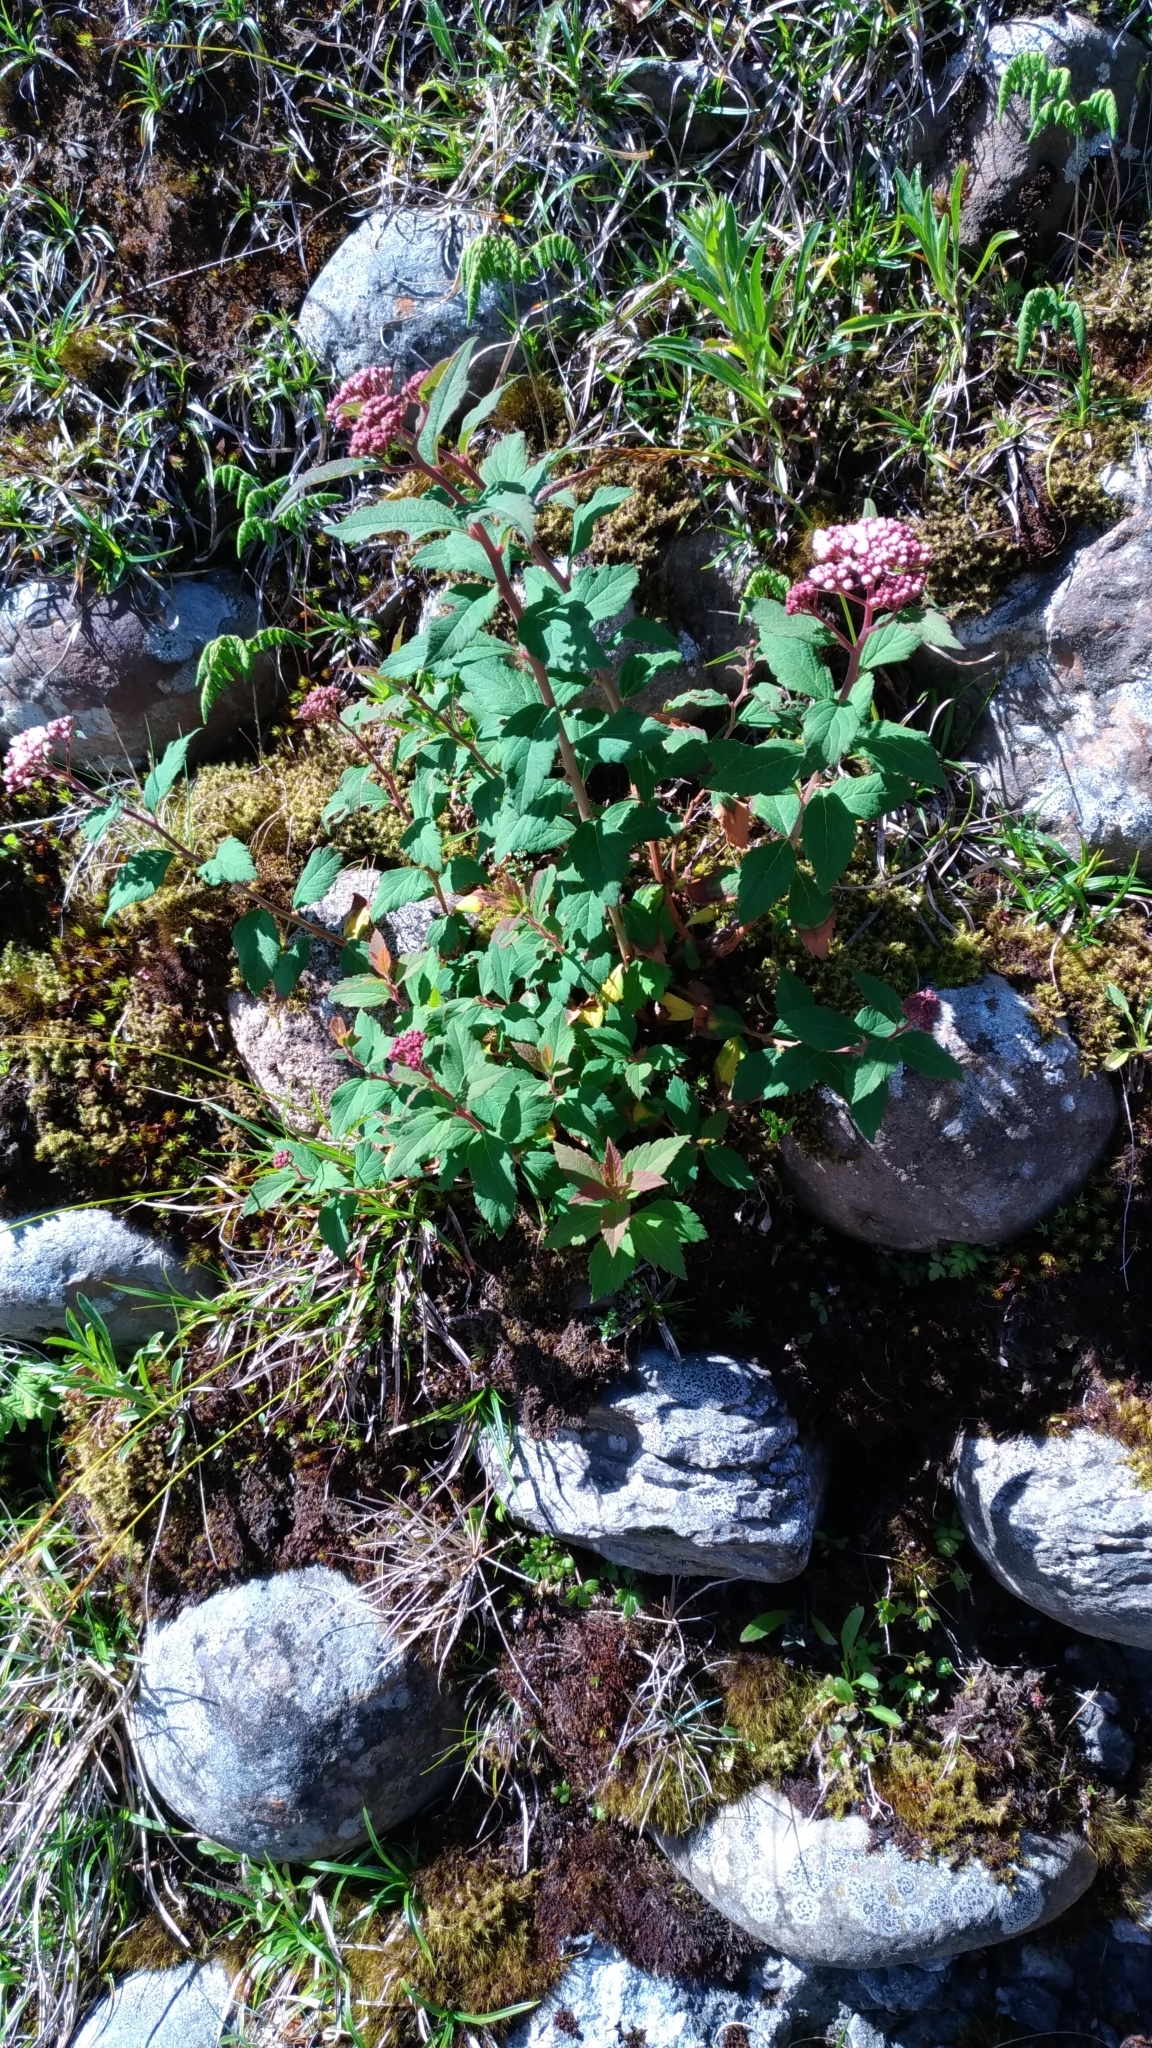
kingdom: Plantae
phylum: Tracheophyta
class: Magnoliopsida
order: Rosales
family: Rosaceae
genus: Spiraea
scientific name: Spiraea morrisonicola
